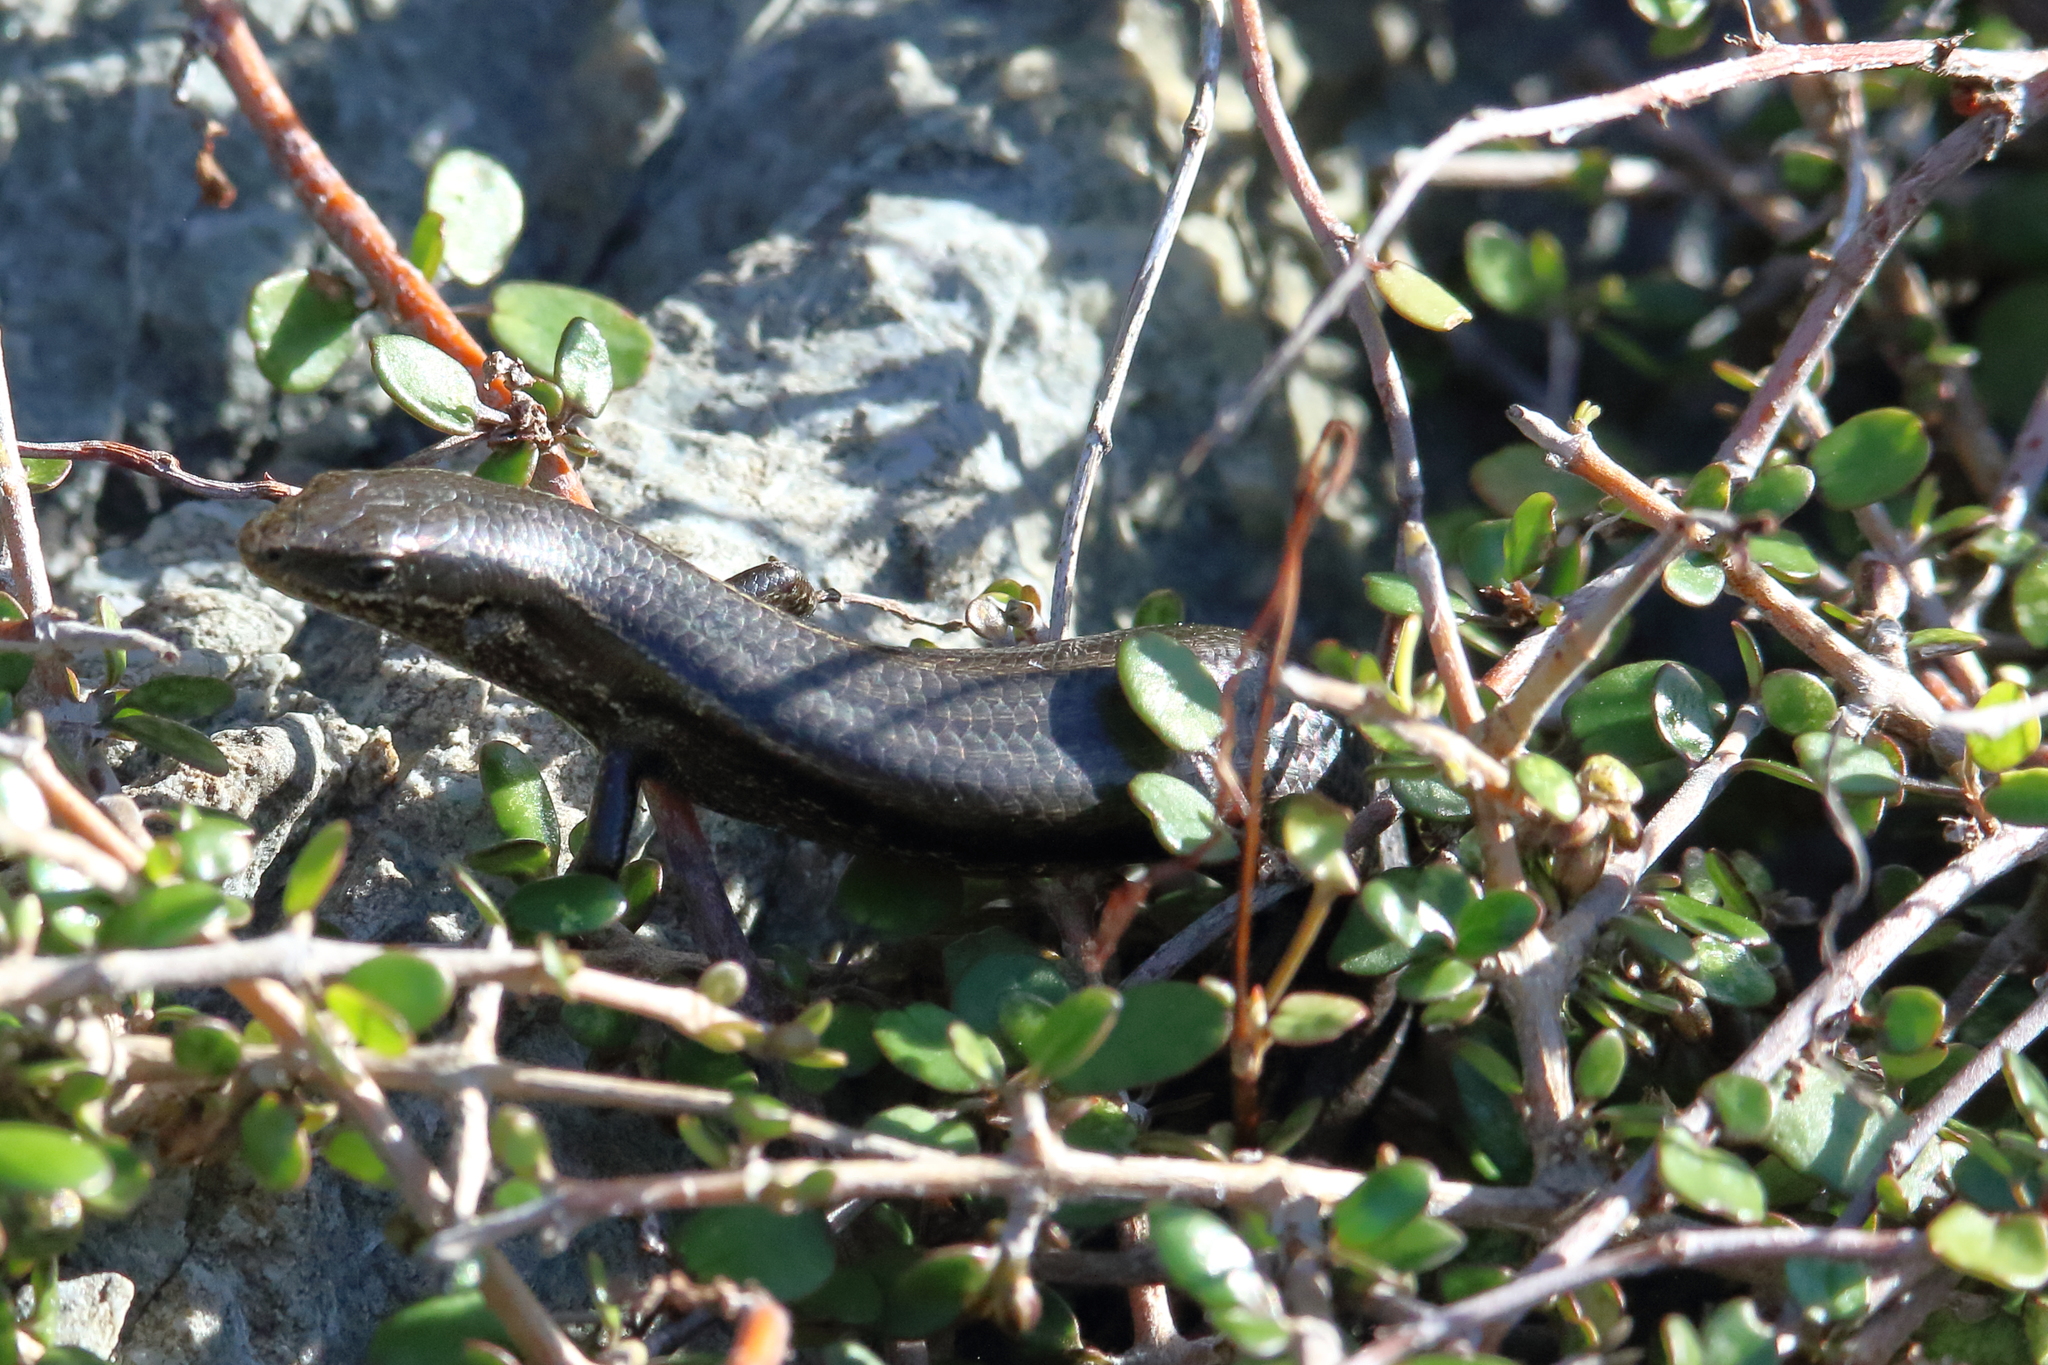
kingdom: Animalia
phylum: Chordata
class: Squamata
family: Scincidae
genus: Oligosoma
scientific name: Oligosoma polychroma
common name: Common new zealand skink
